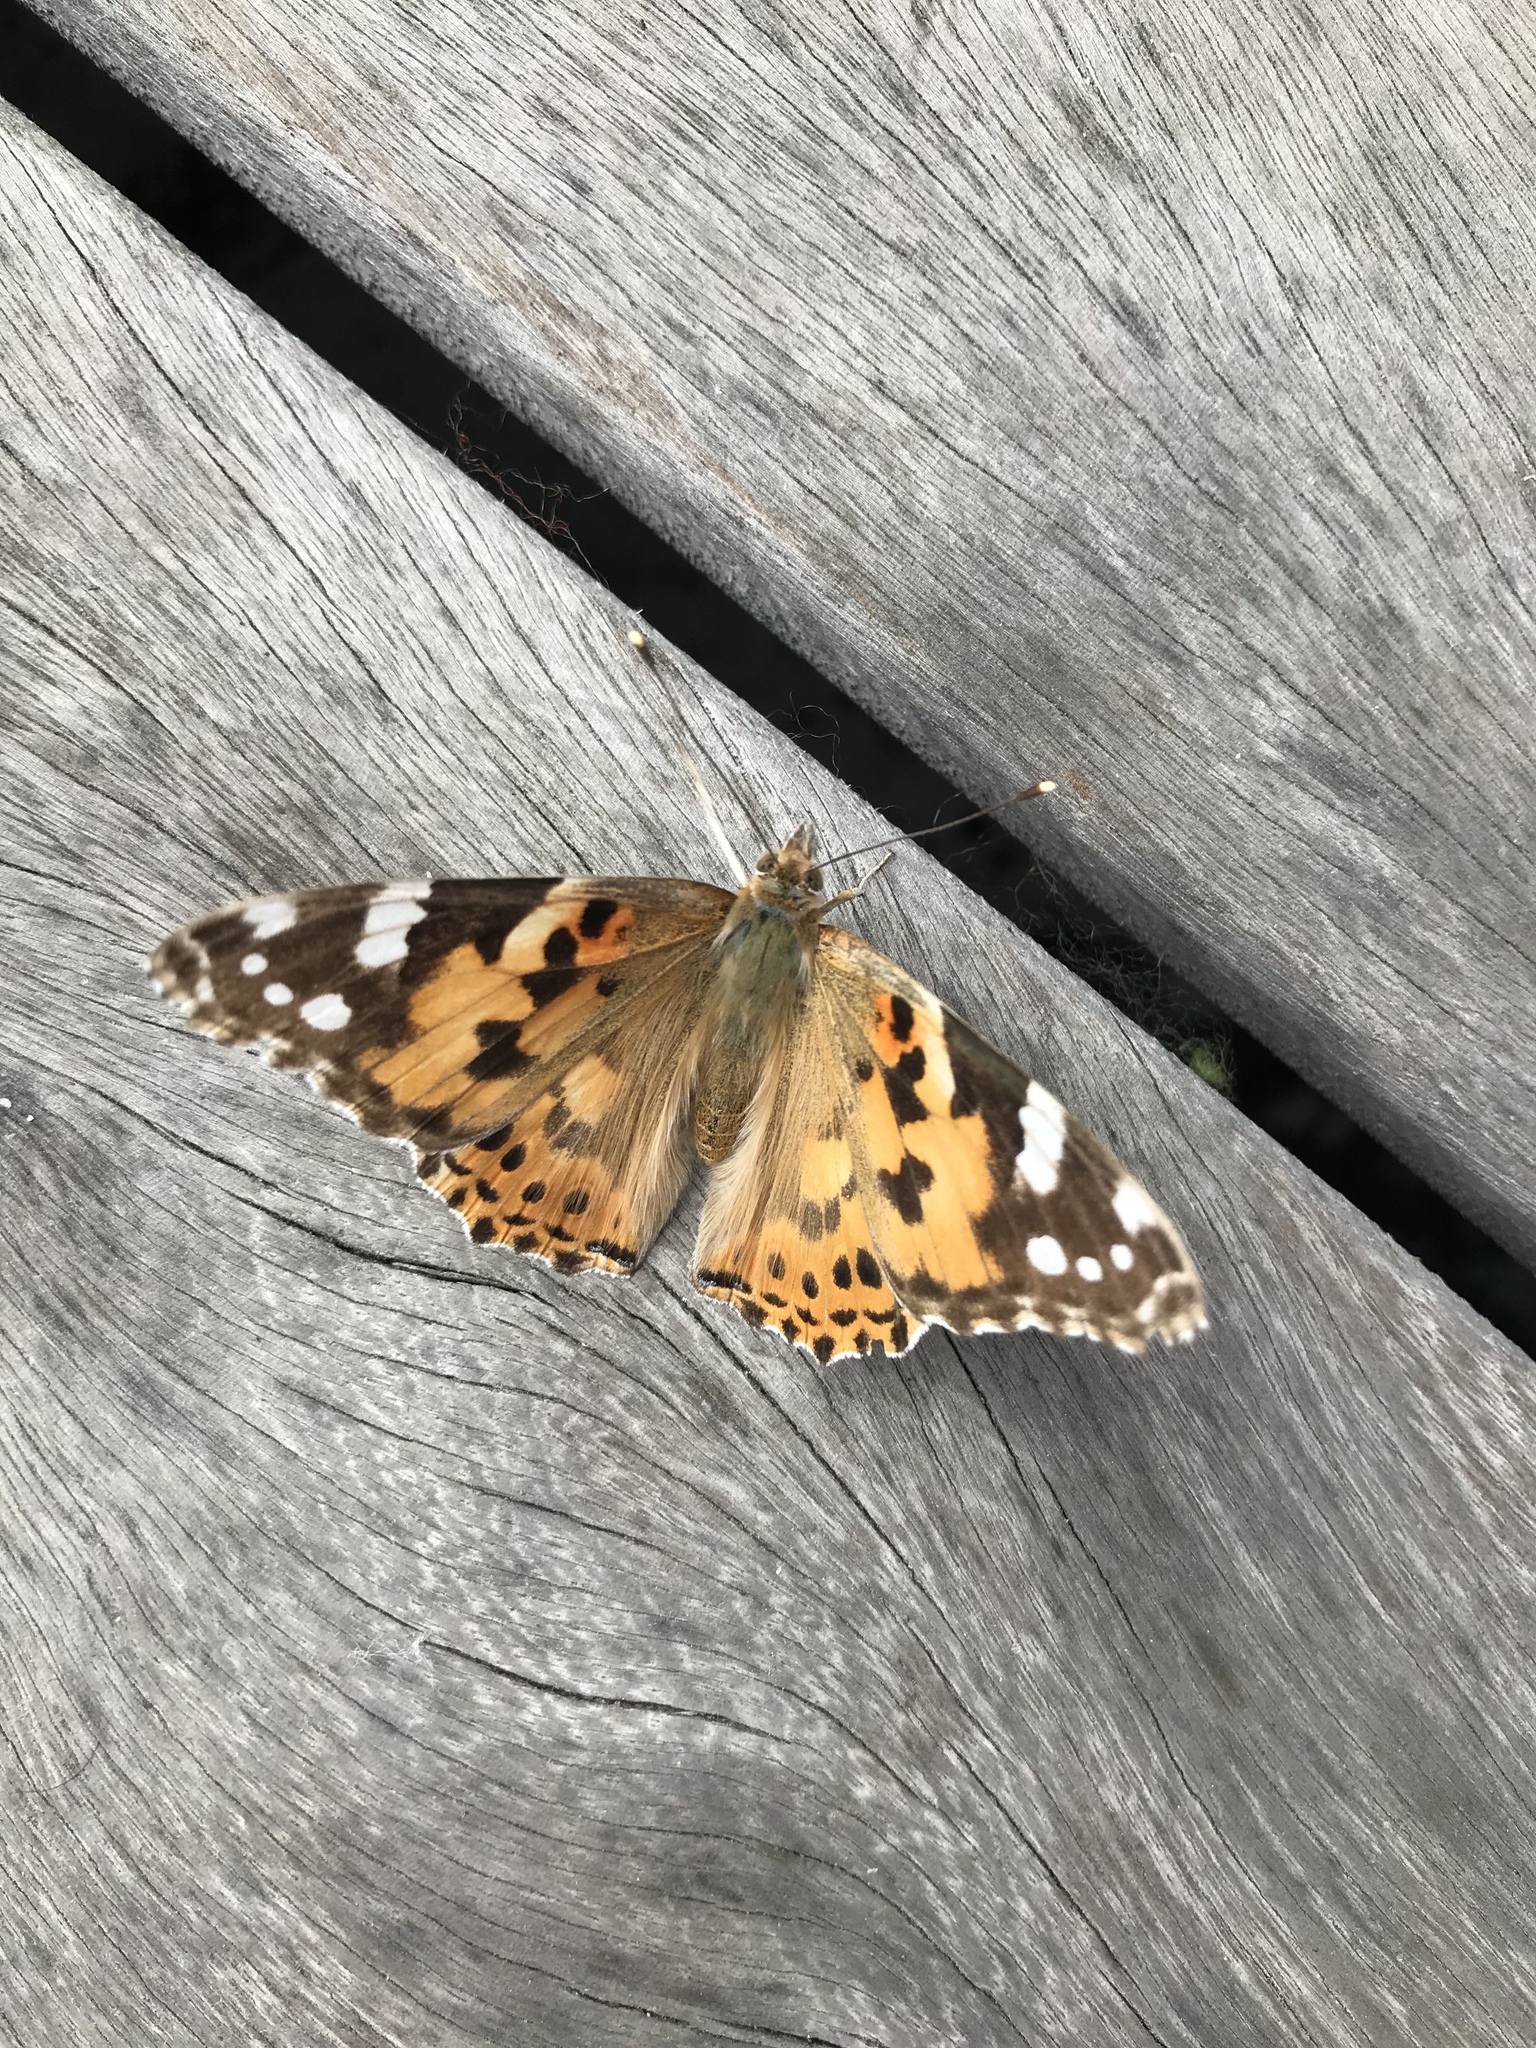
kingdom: Animalia
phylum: Arthropoda
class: Insecta
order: Lepidoptera
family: Nymphalidae
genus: Vanessa
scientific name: Vanessa cardui
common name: Painted lady
